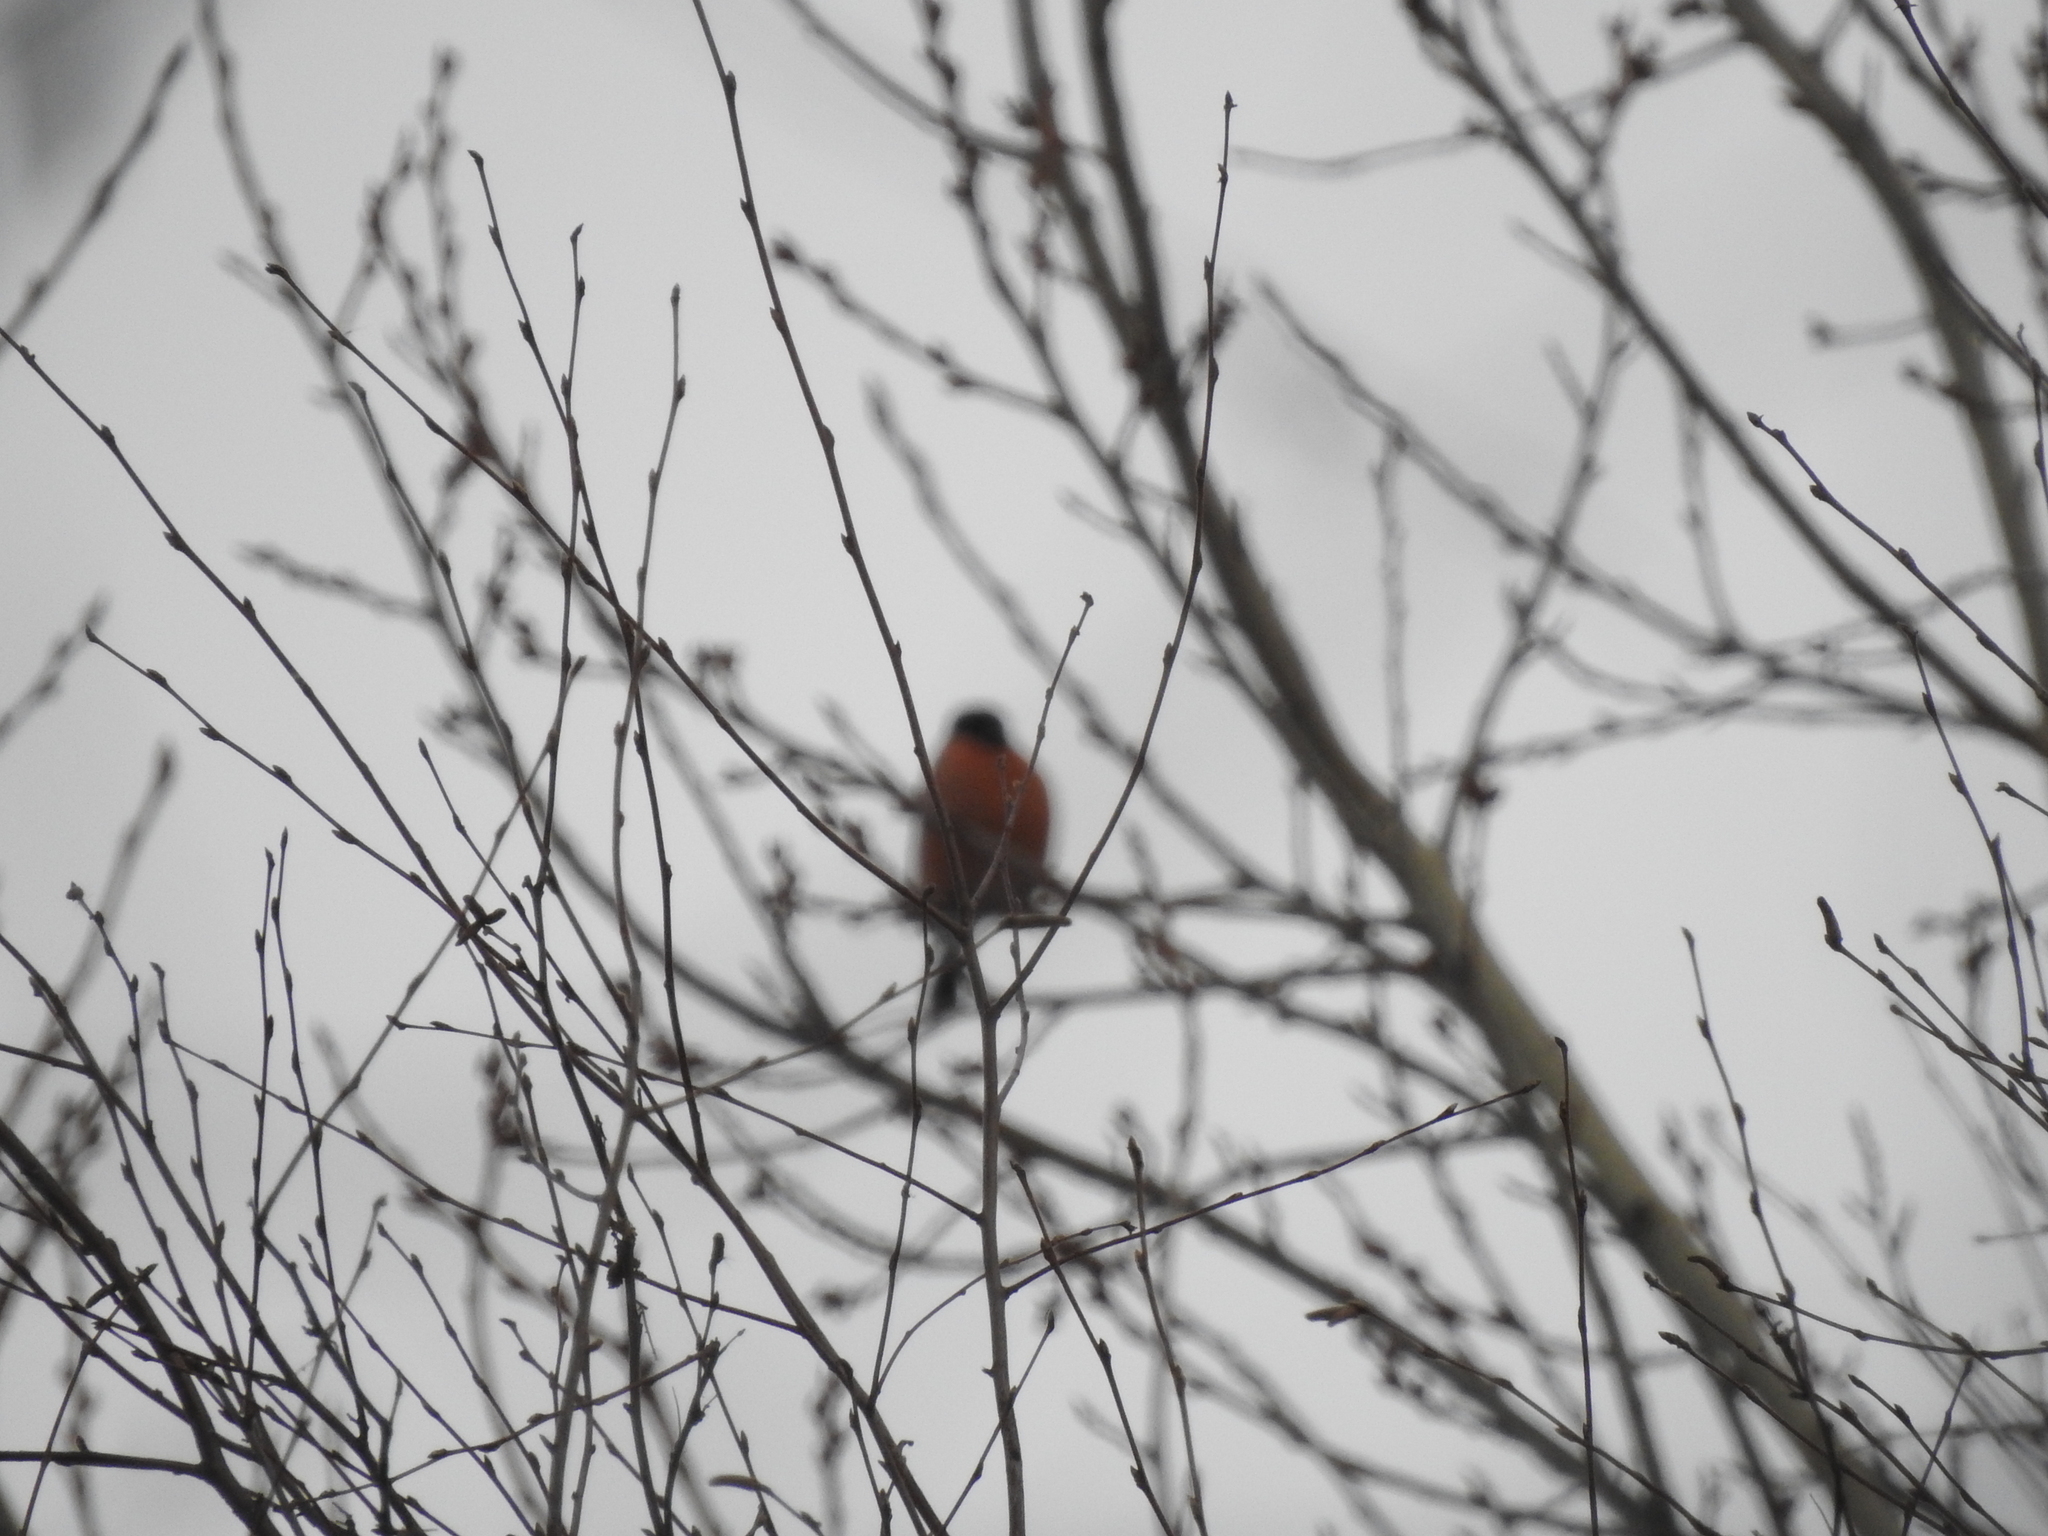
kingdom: Animalia
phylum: Chordata
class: Aves
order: Passeriformes
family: Fringillidae
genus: Pyrrhula
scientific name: Pyrrhula pyrrhula
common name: Eurasian bullfinch
